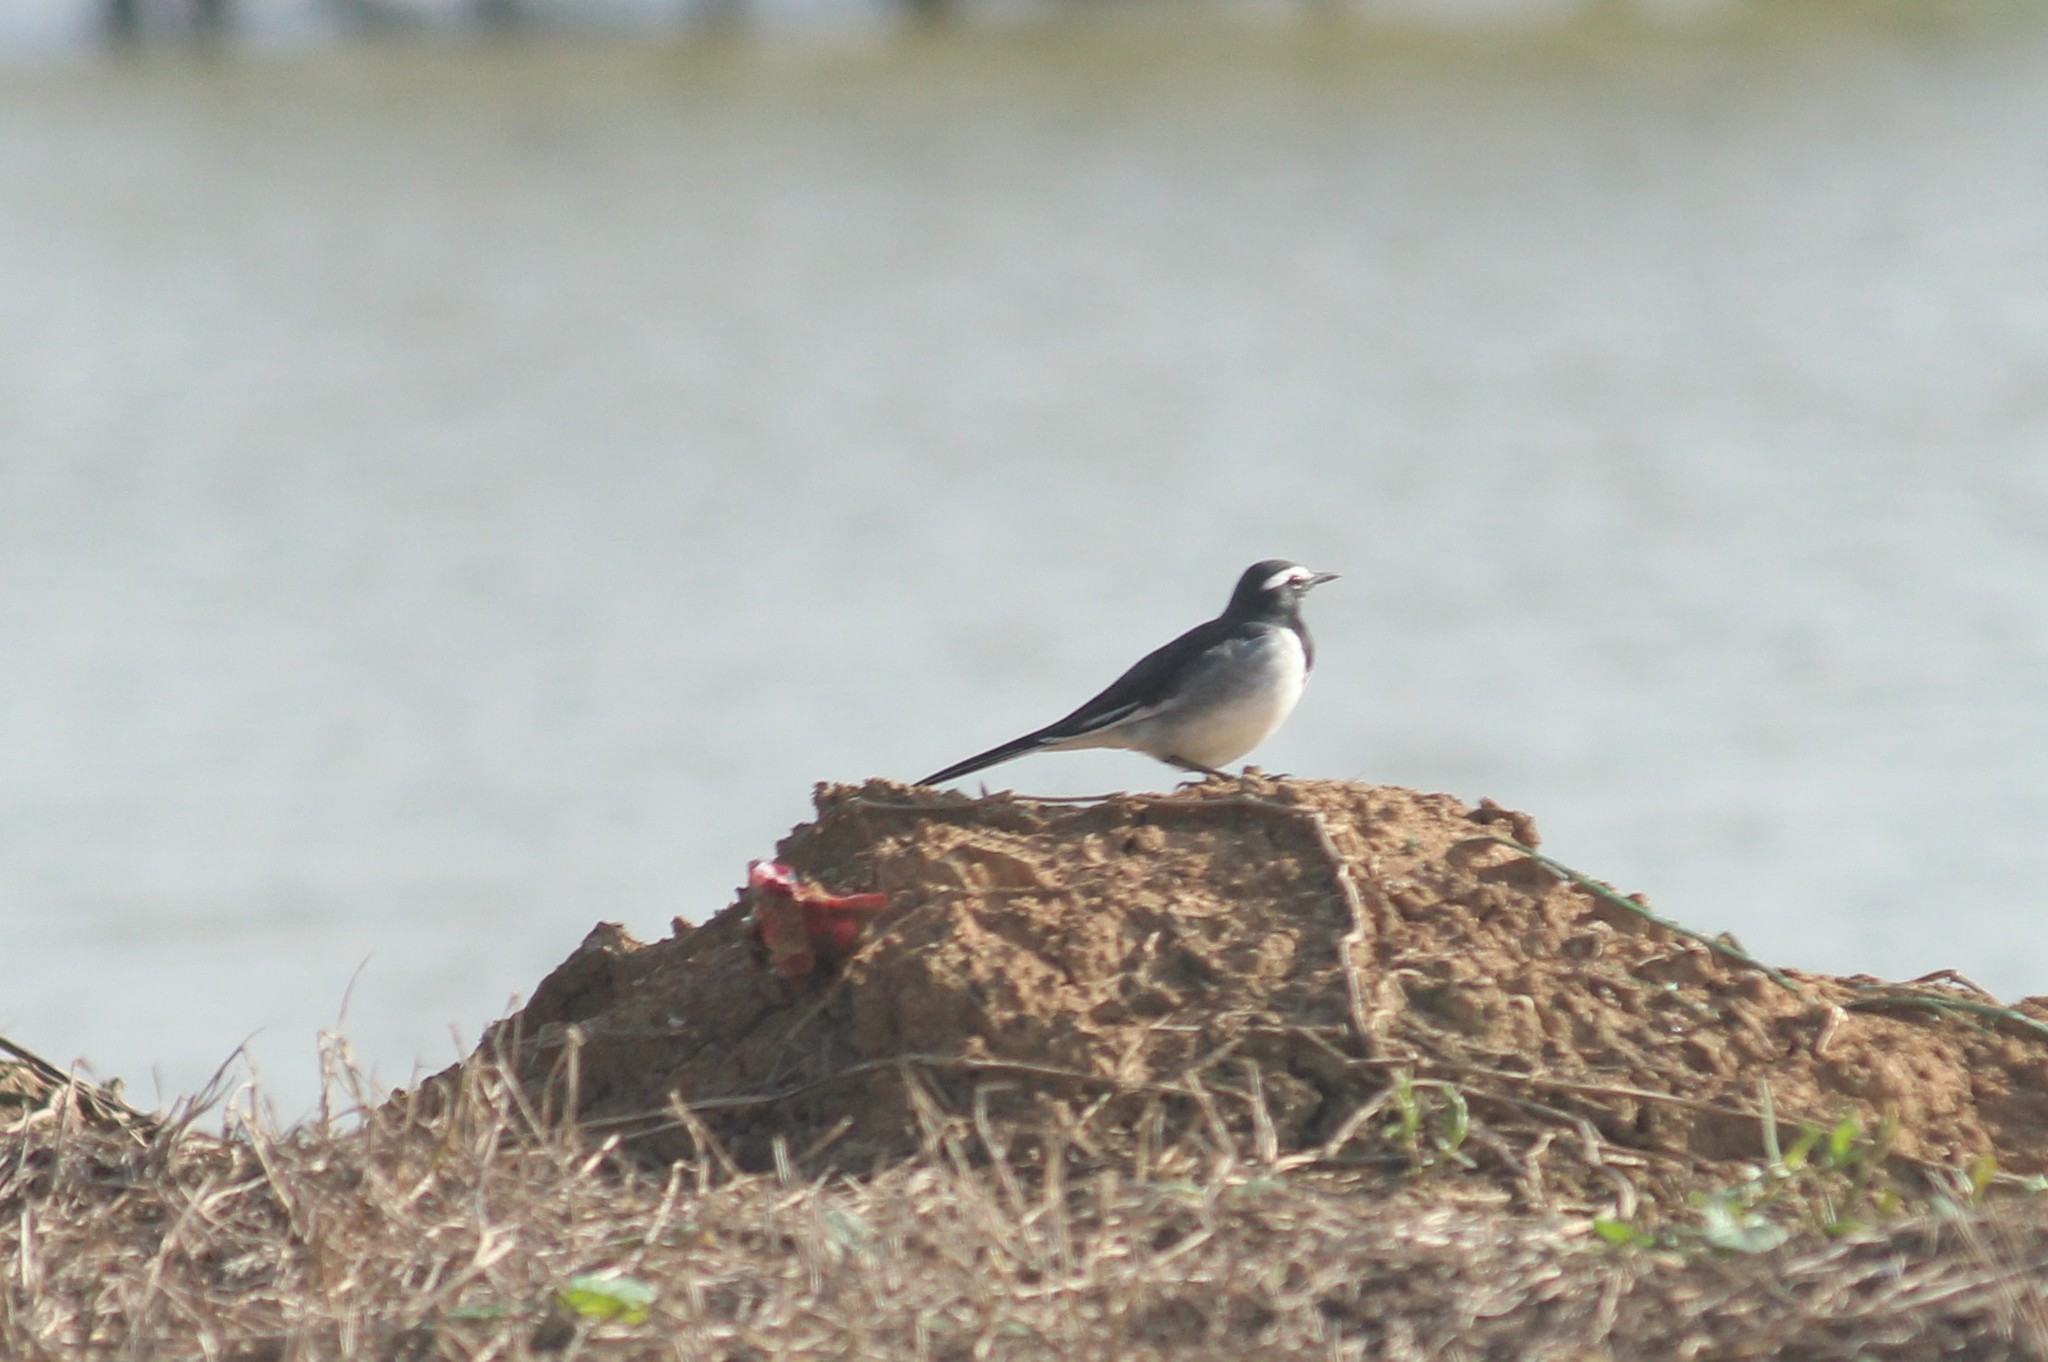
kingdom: Animalia
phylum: Chordata
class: Aves
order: Passeriformes
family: Motacillidae
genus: Motacilla
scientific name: Motacilla maderaspatensis
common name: White-browed wagtail
